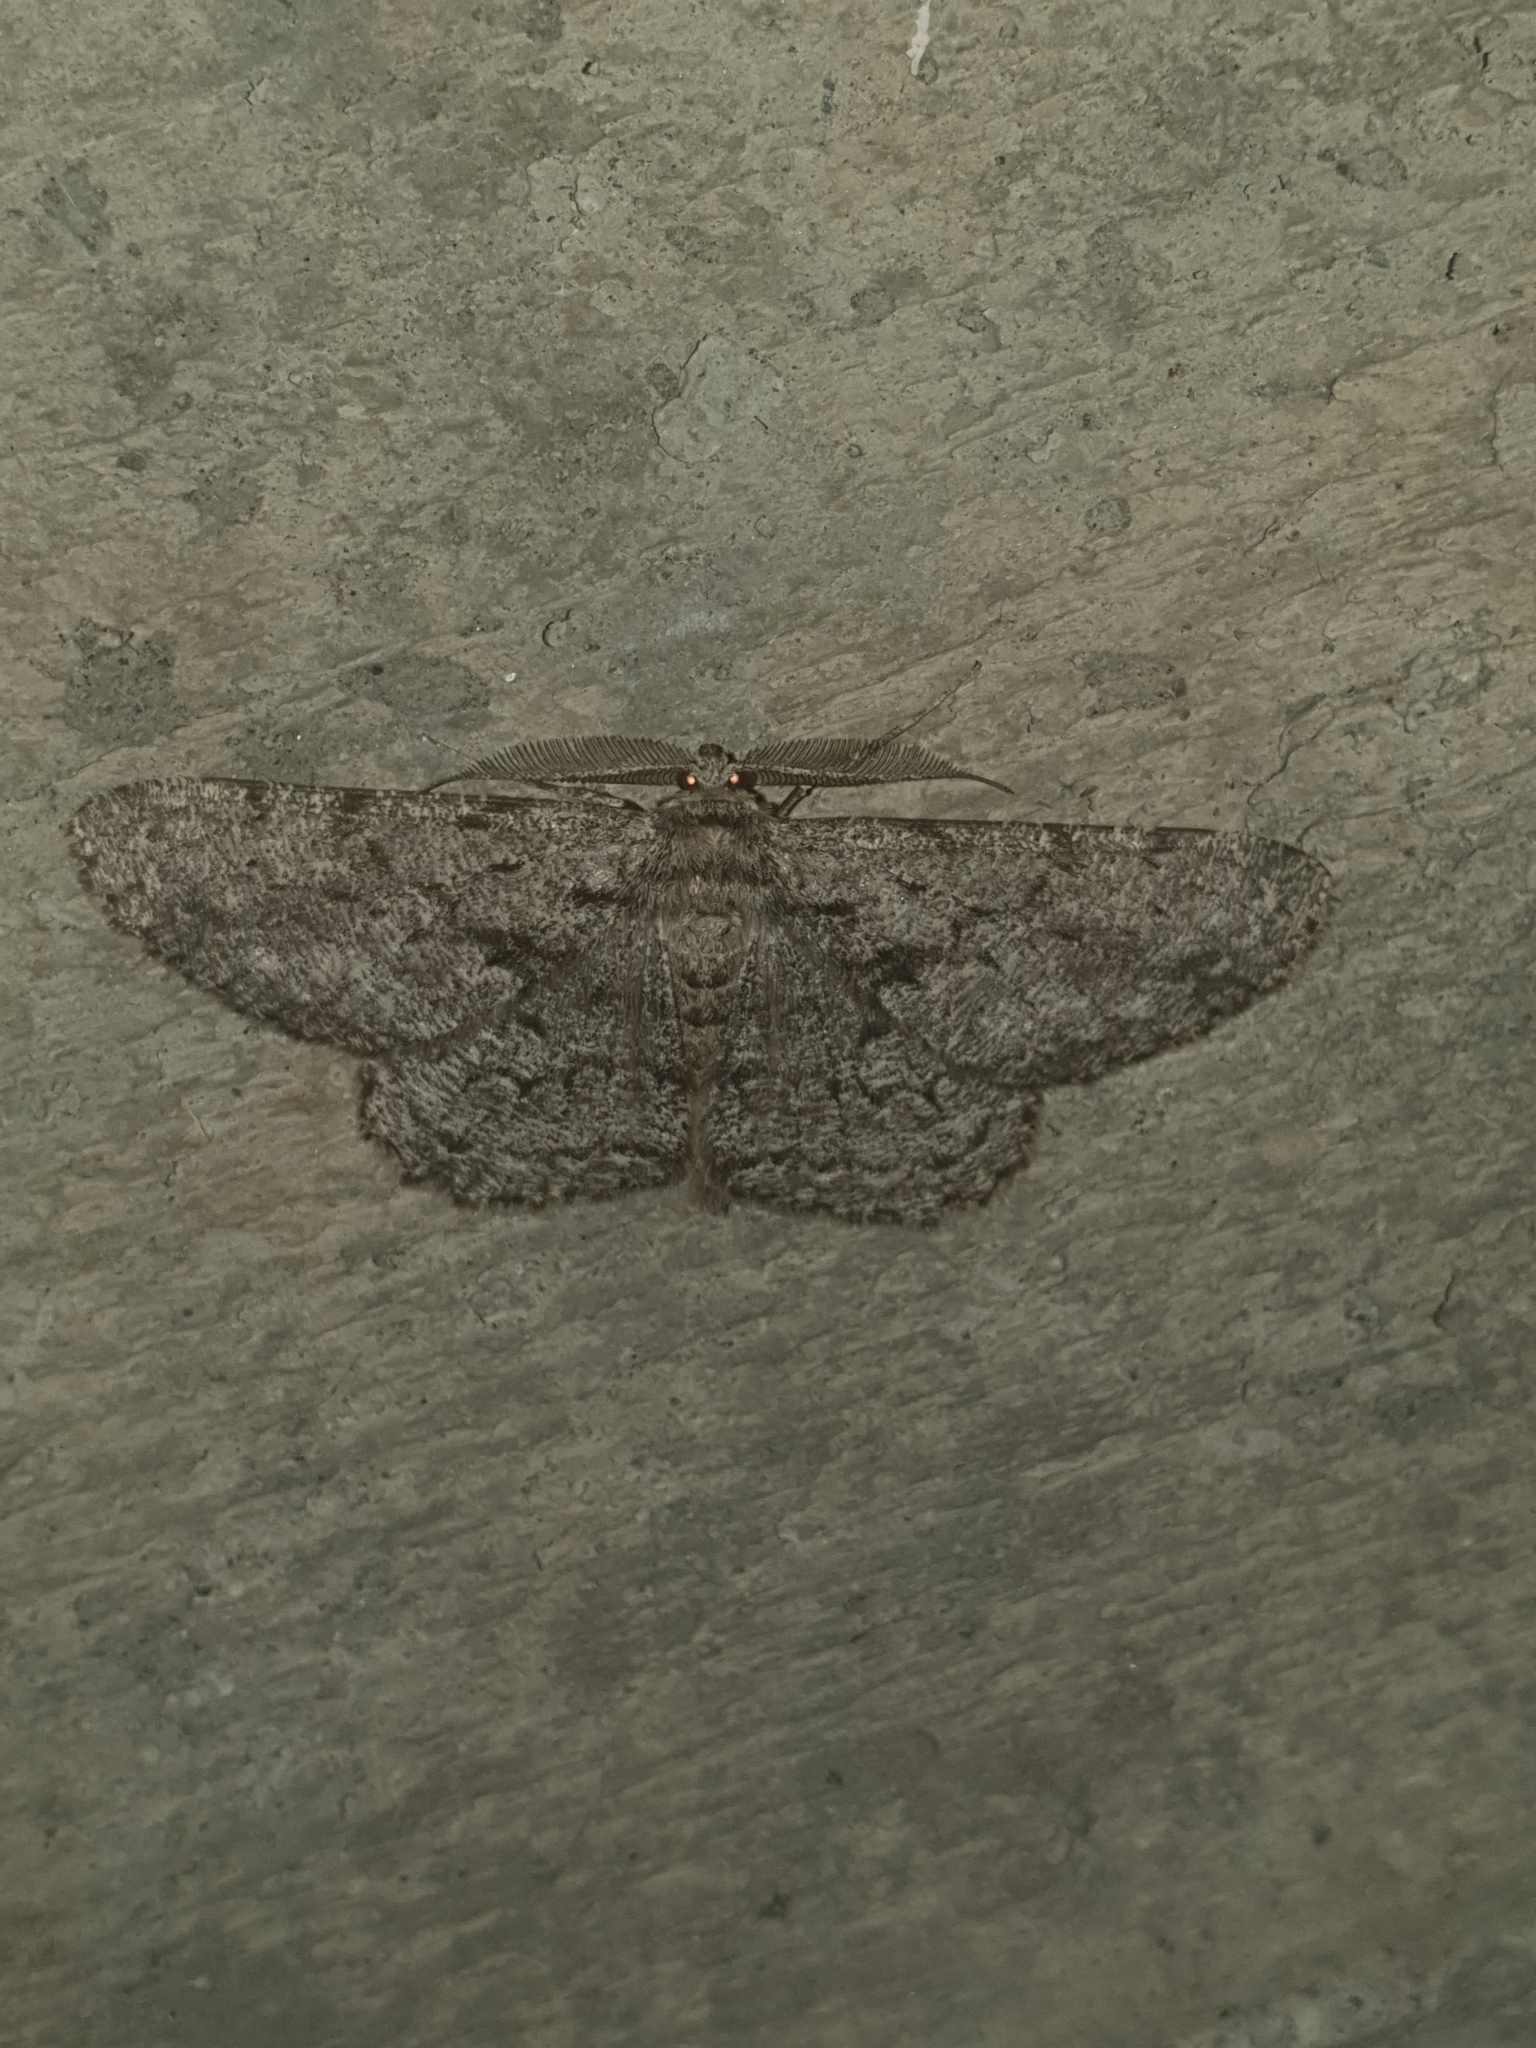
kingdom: Animalia
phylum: Arthropoda
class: Insecta
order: Lepidoptera
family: Geometridae
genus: Hypomecis
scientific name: Hypomecis roboraria
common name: Great oak beauty
